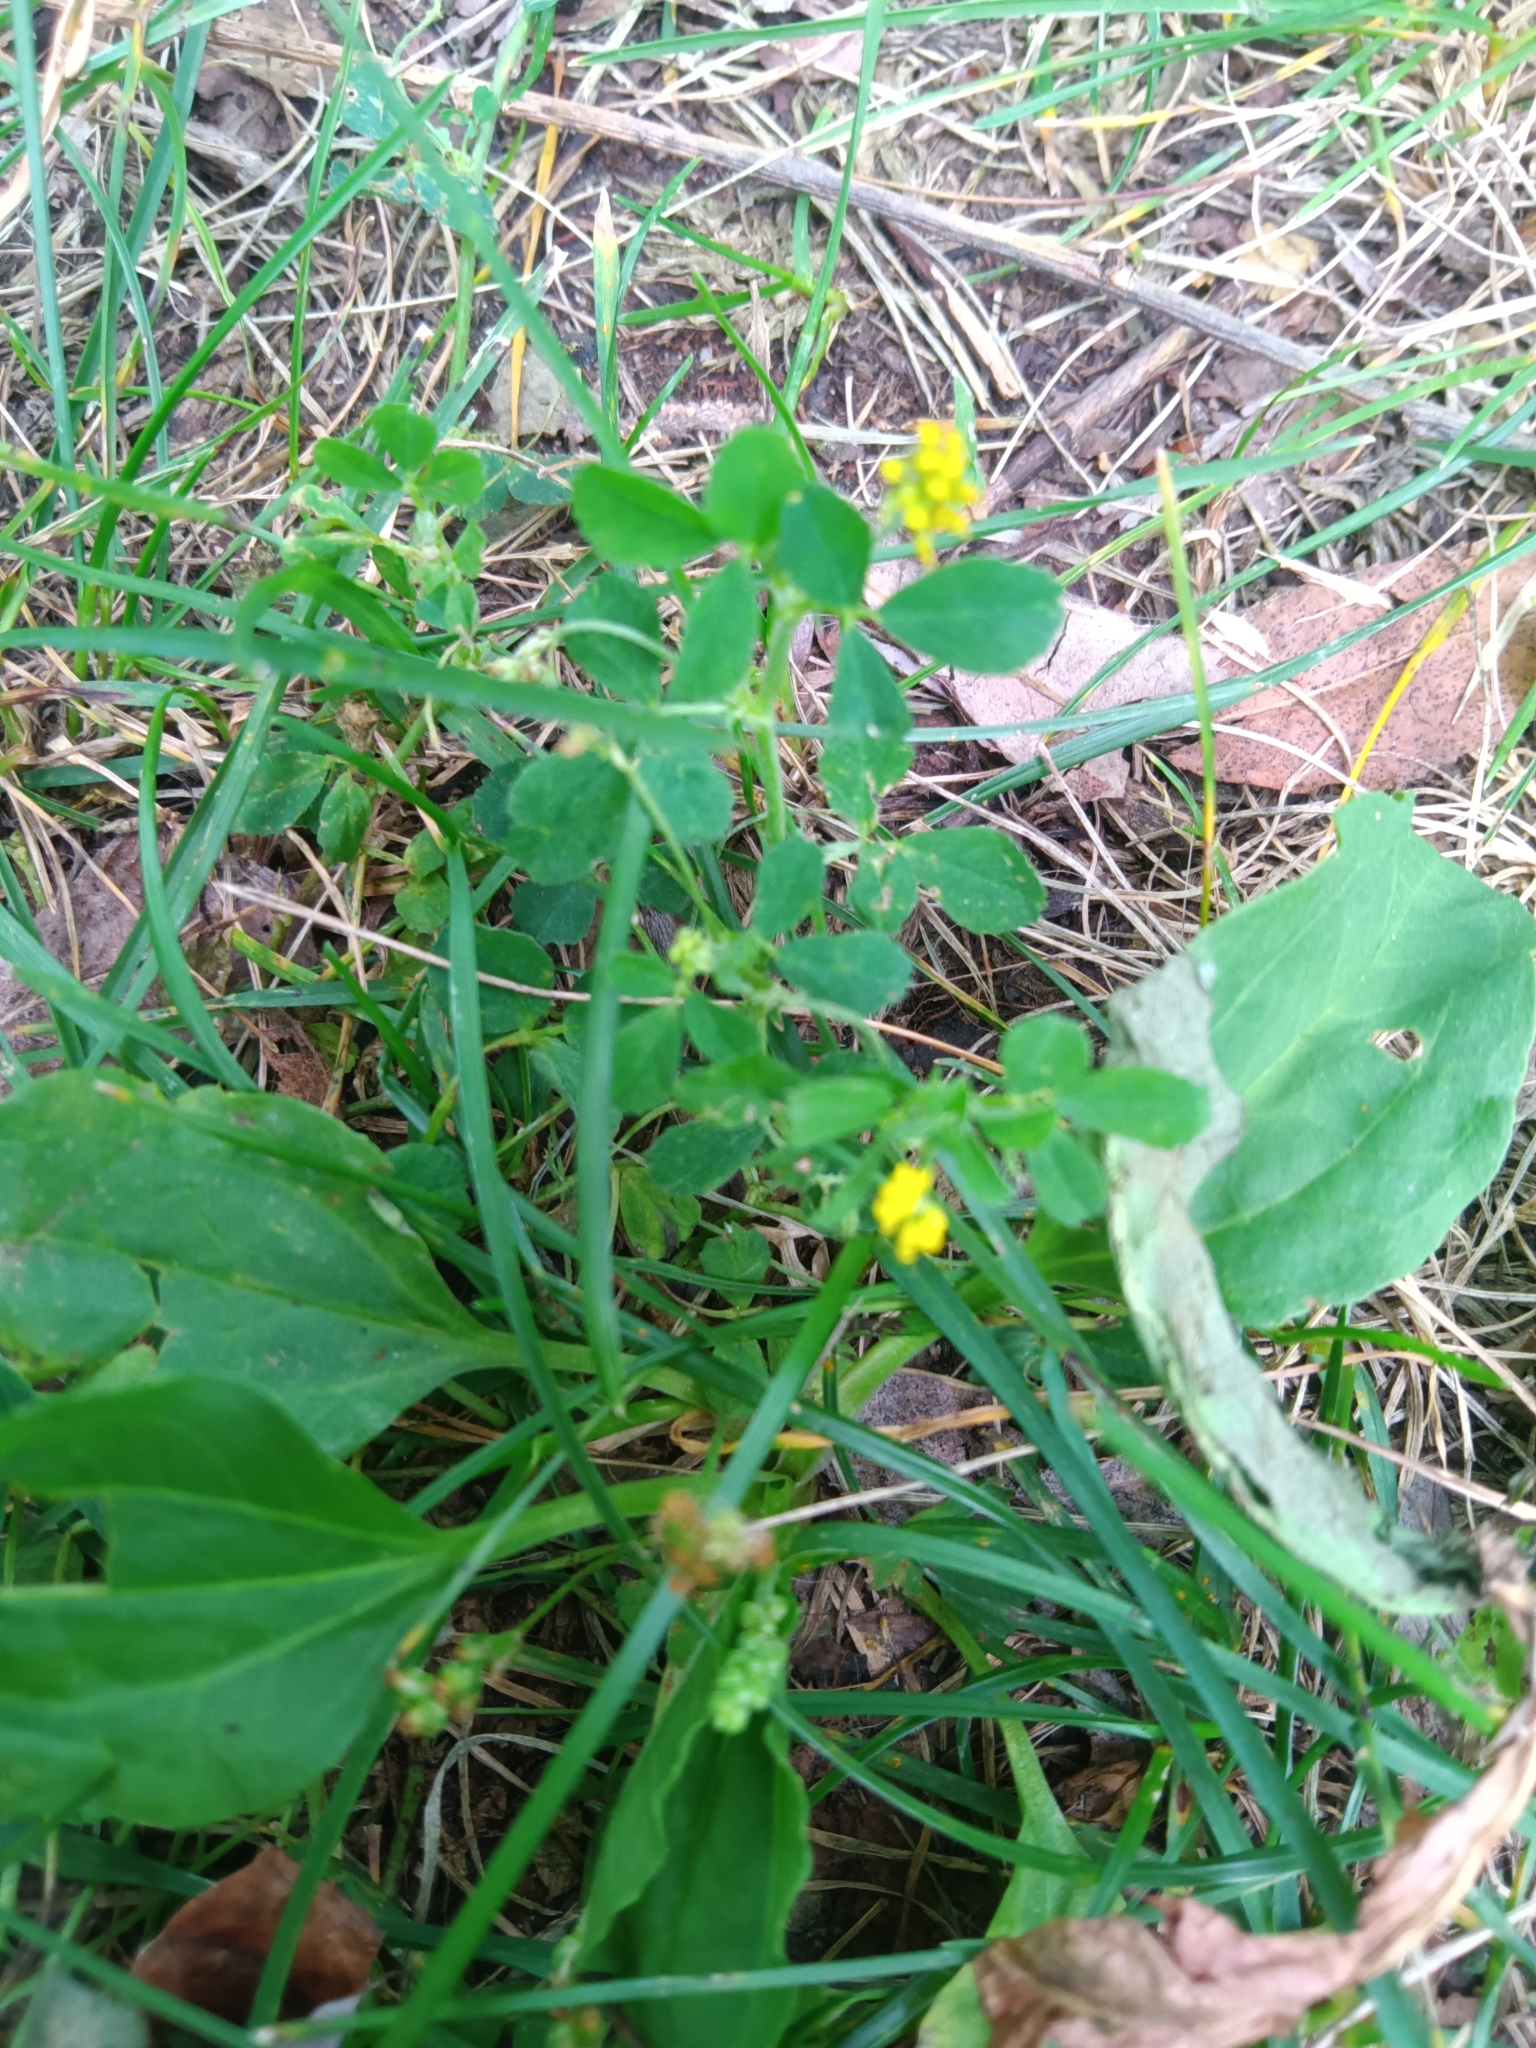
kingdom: Plantae
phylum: Tracheophyta
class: Magnoliopsida
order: Fabales
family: Fabaceae
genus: Medicago
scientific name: Medicago lupulina
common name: Black medick
